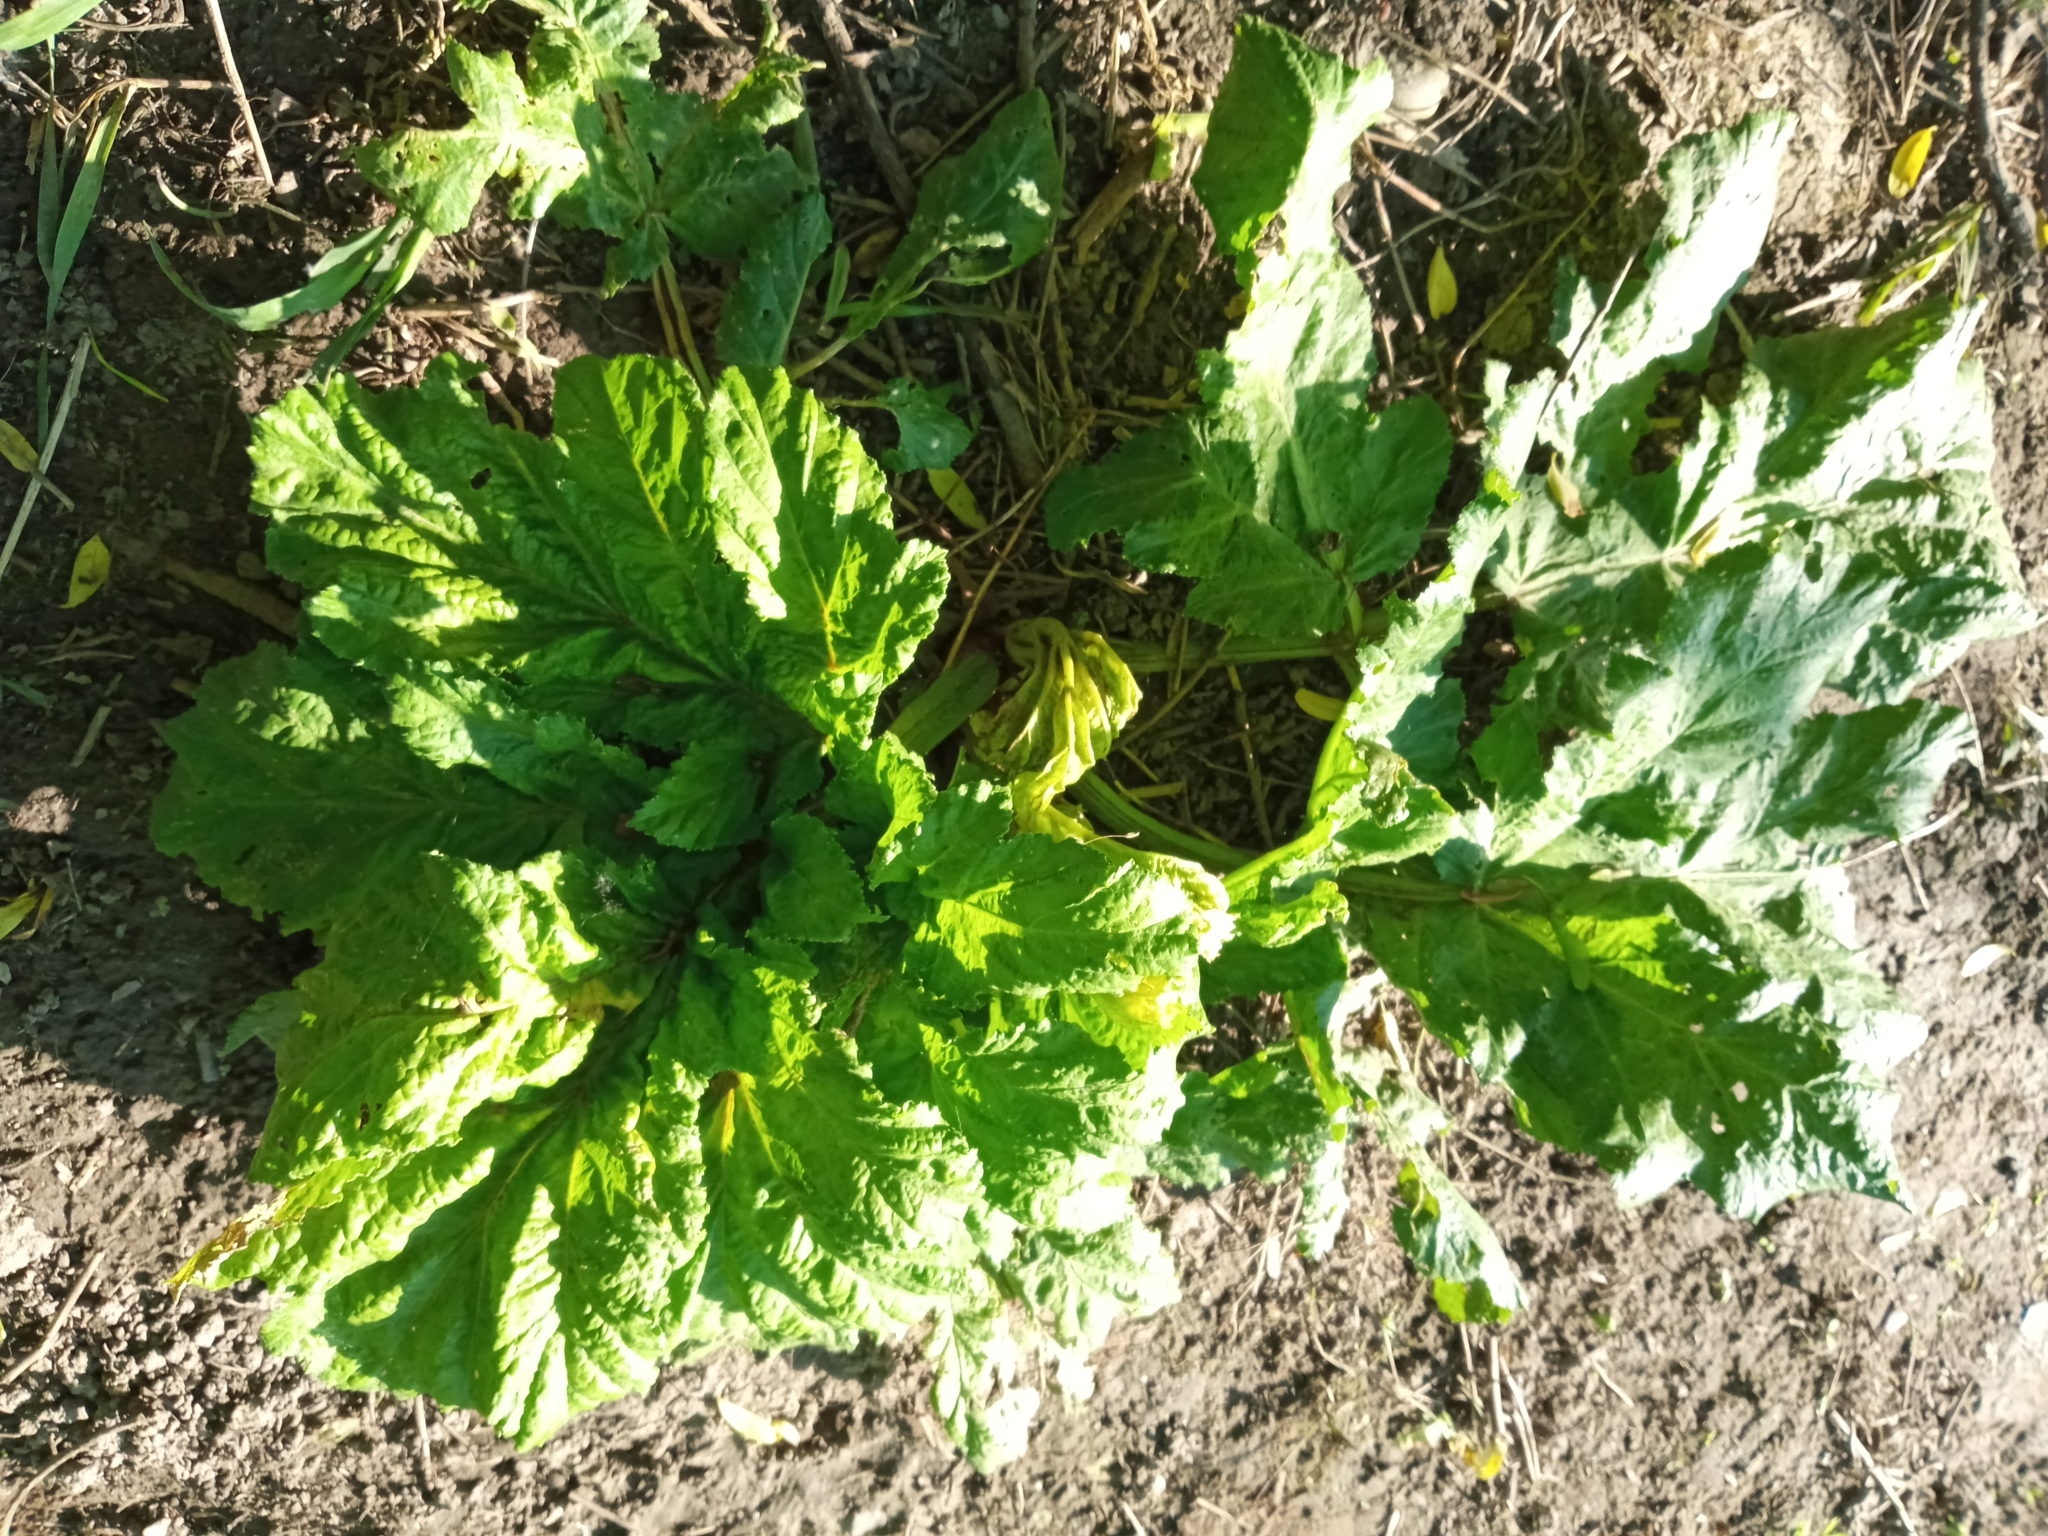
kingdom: Plantae
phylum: Tracheophyta
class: Magnoliopsida
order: Apiales
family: Apiaceae
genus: Heracleum
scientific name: Heracleum sosnowskyi
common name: Sosnowsky's hogweed
